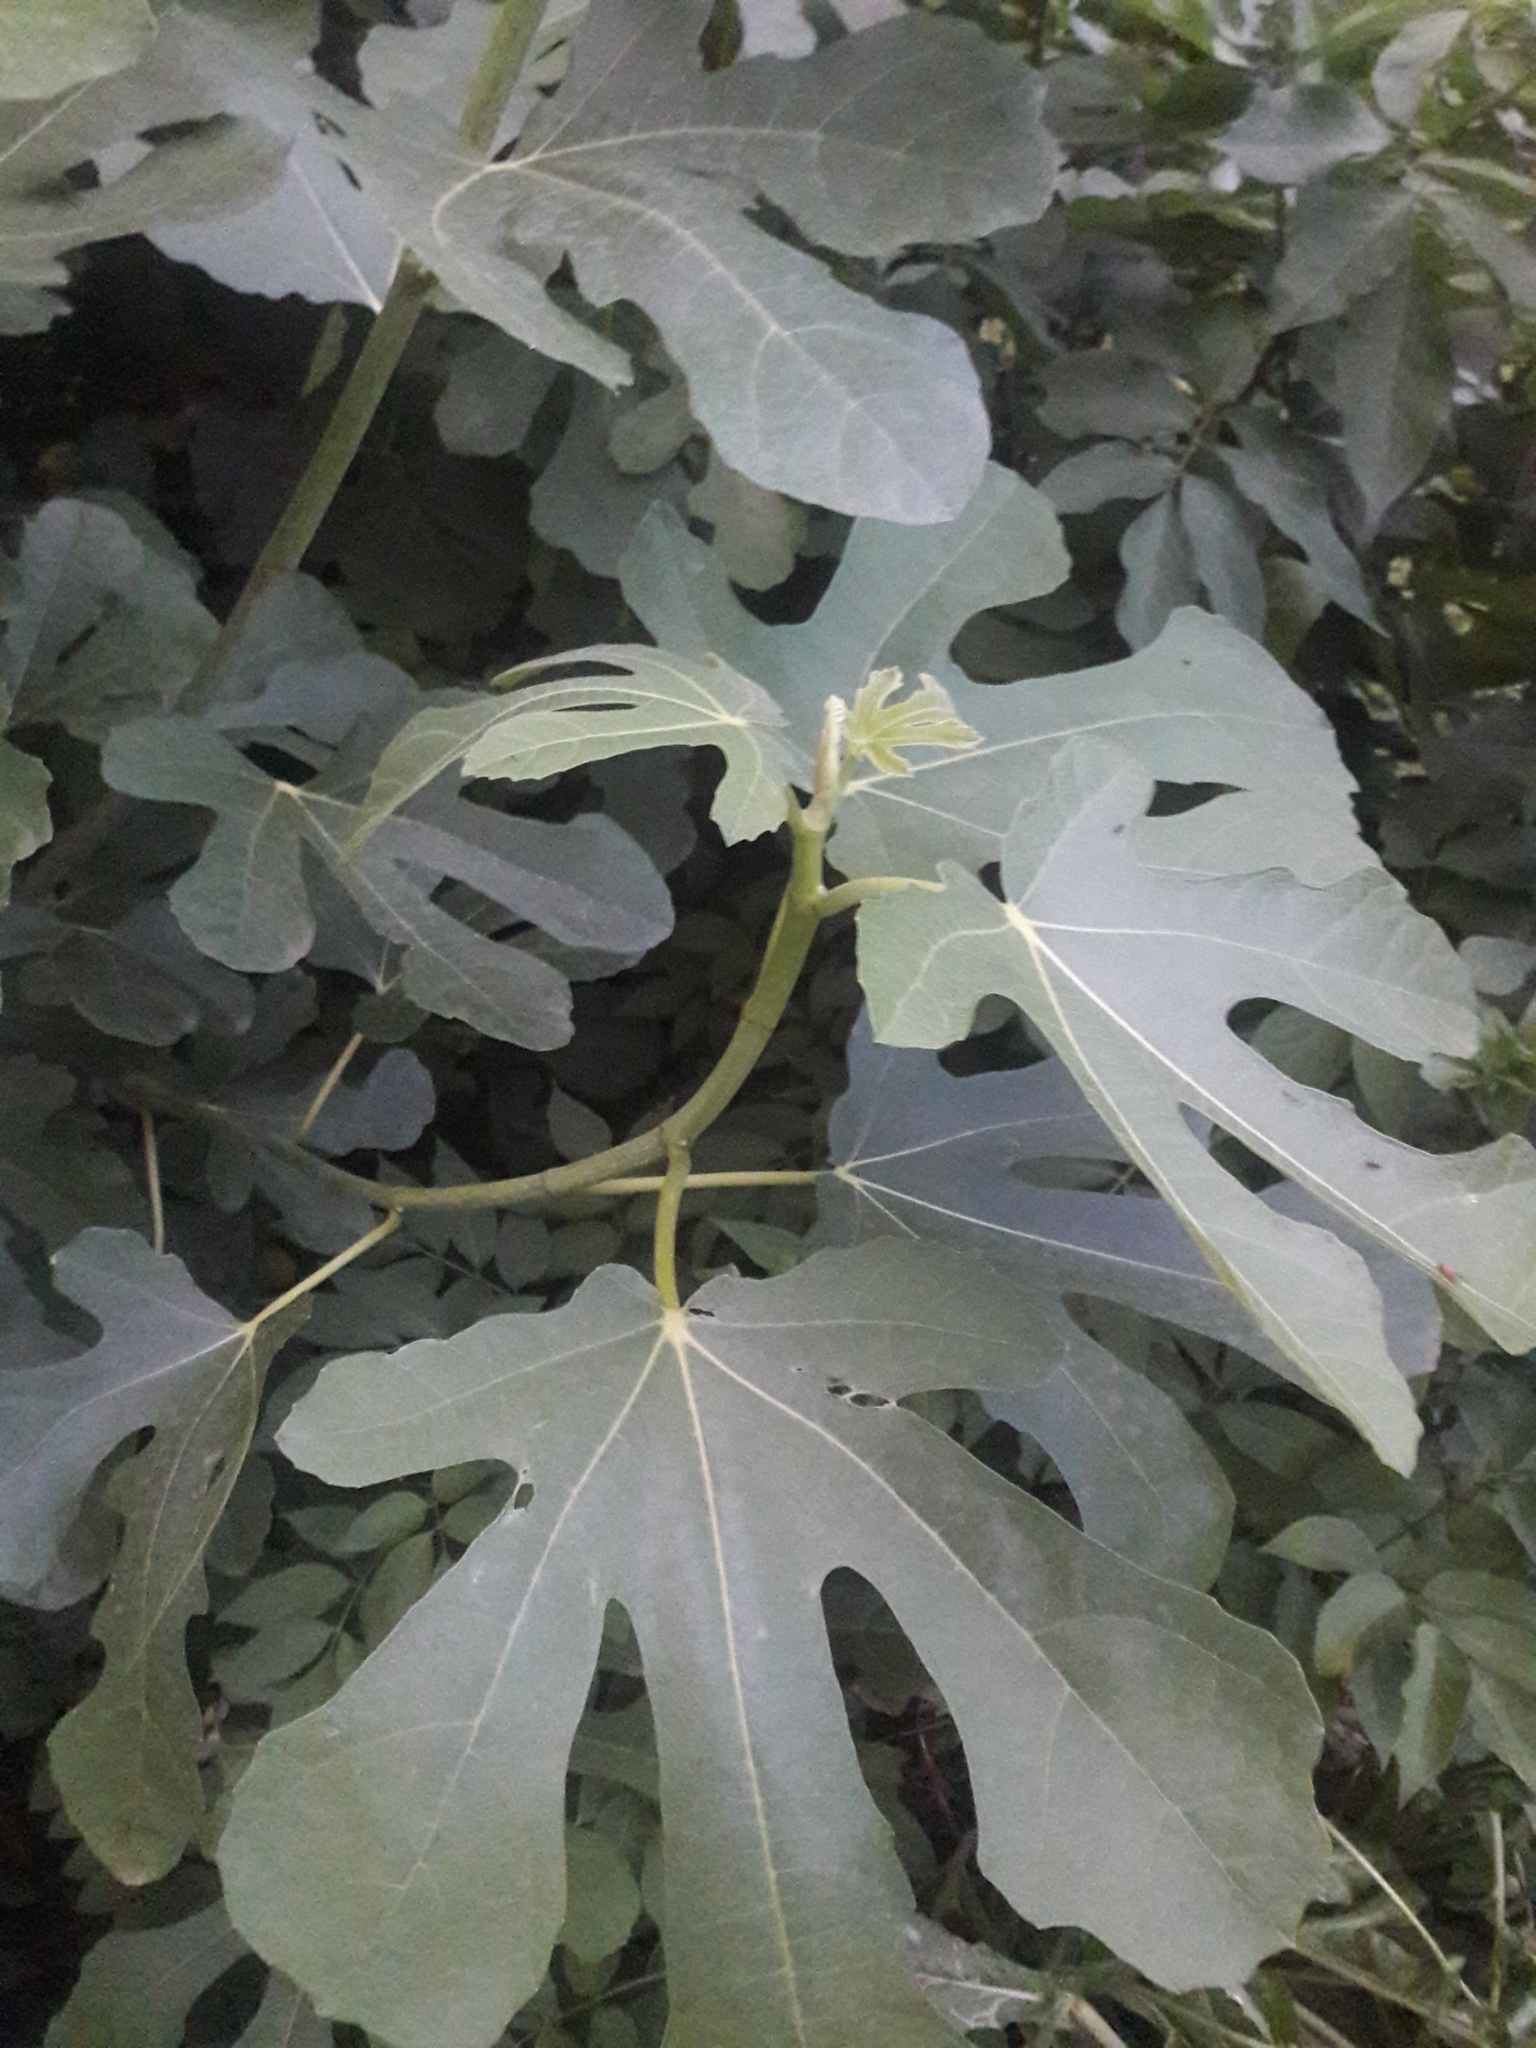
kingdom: Plantae
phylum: Tracheophyta
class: Magnoliopsida
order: Rosales
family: Moraceae
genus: Ficus
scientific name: Ficus carica
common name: Fig
